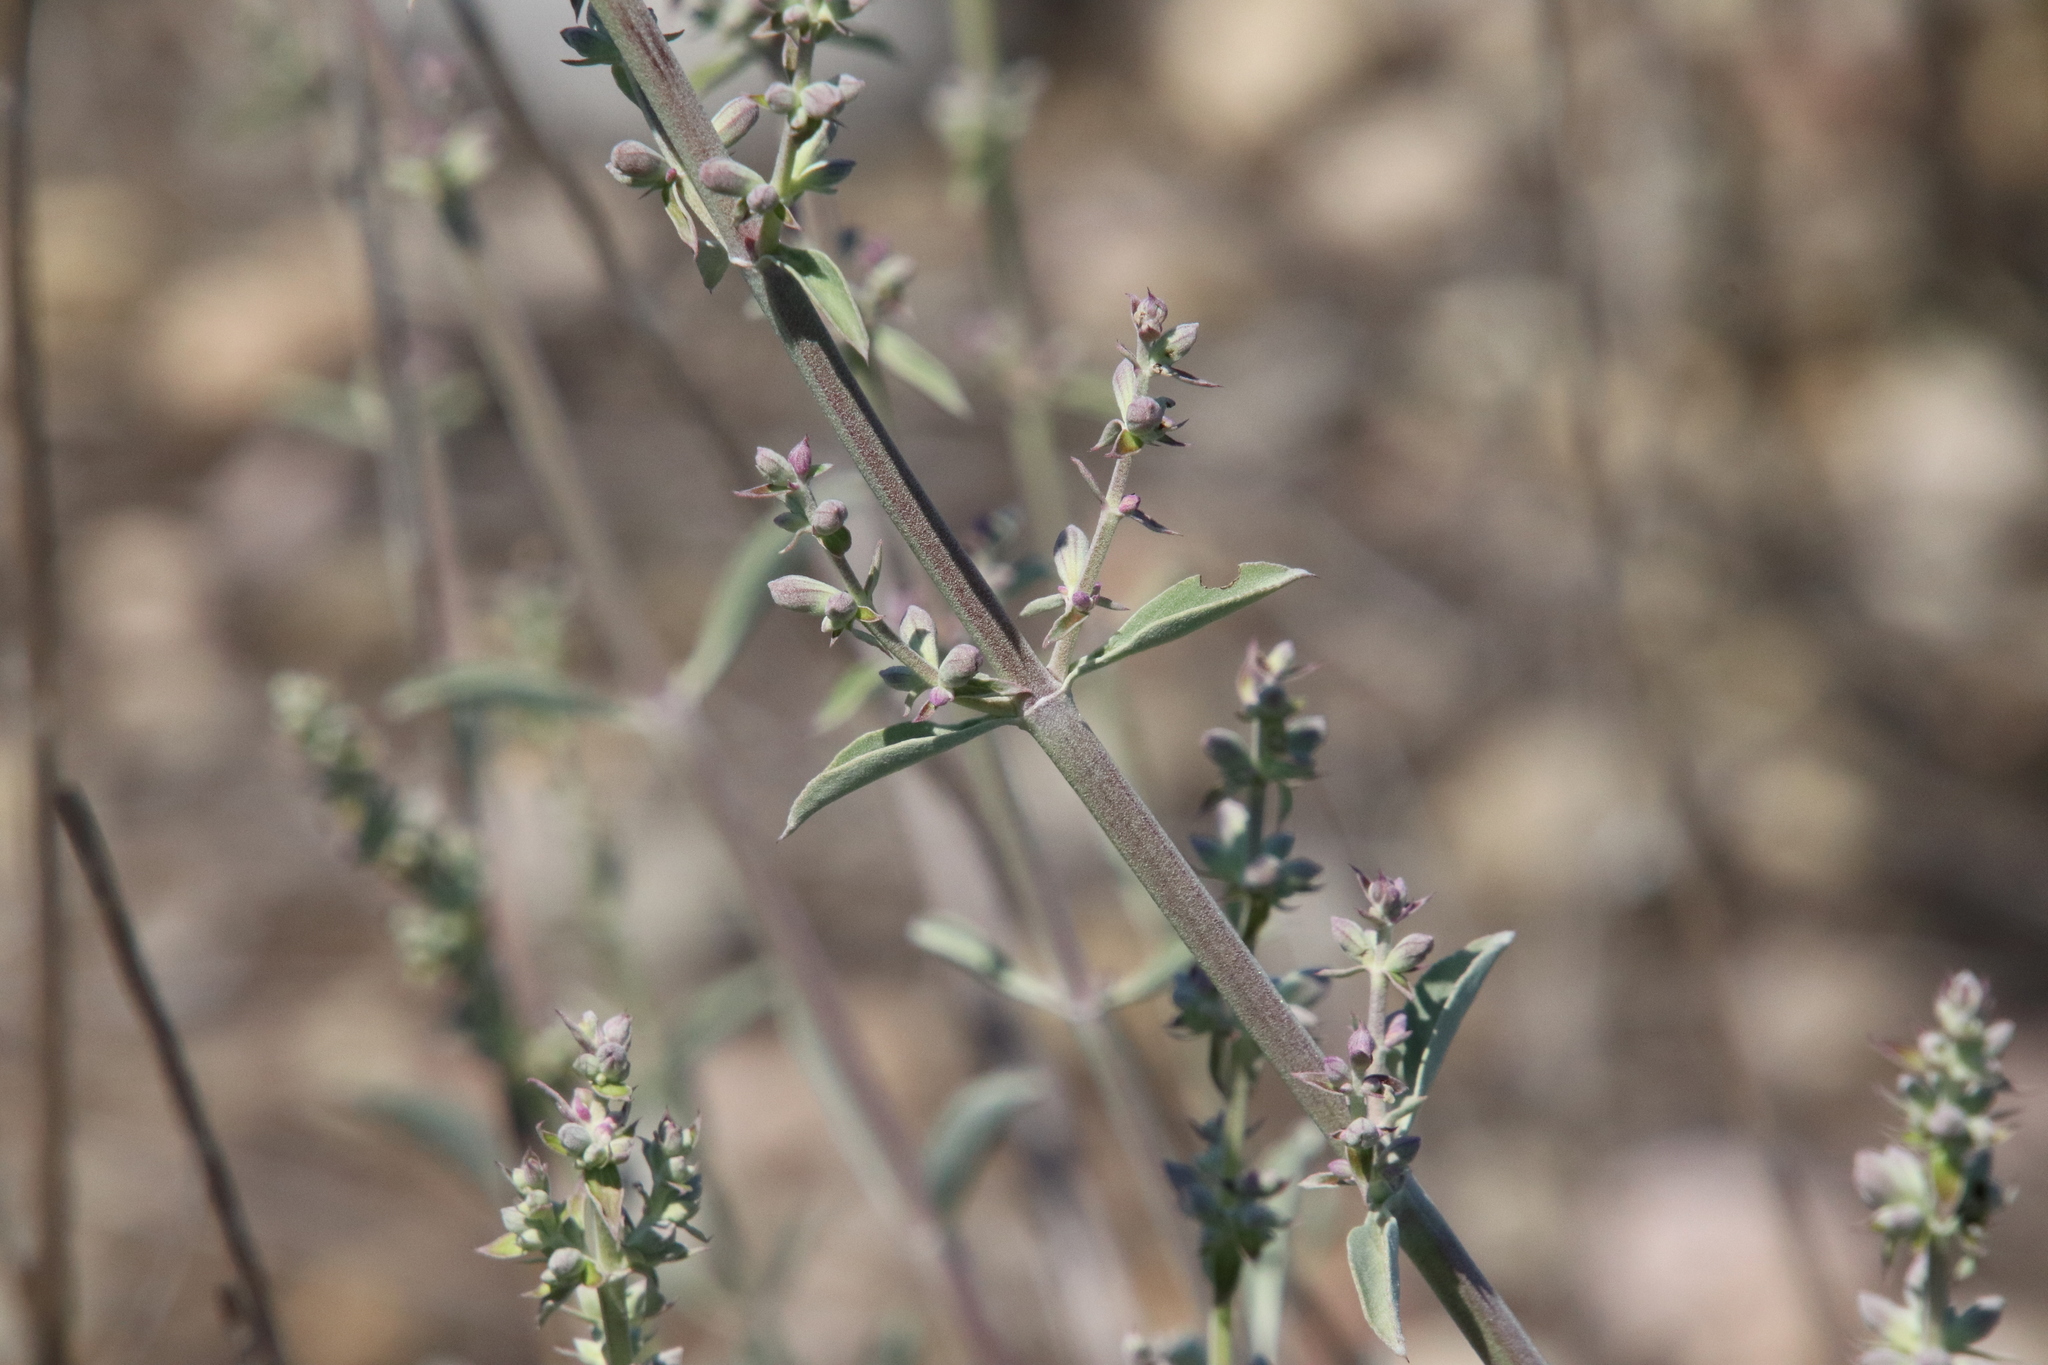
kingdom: Plantae
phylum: Tracheophyta
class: Magnoliopsida
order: Lamiales
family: Lamiaceae
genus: Salvia
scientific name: Salvia apiana
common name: White sage
